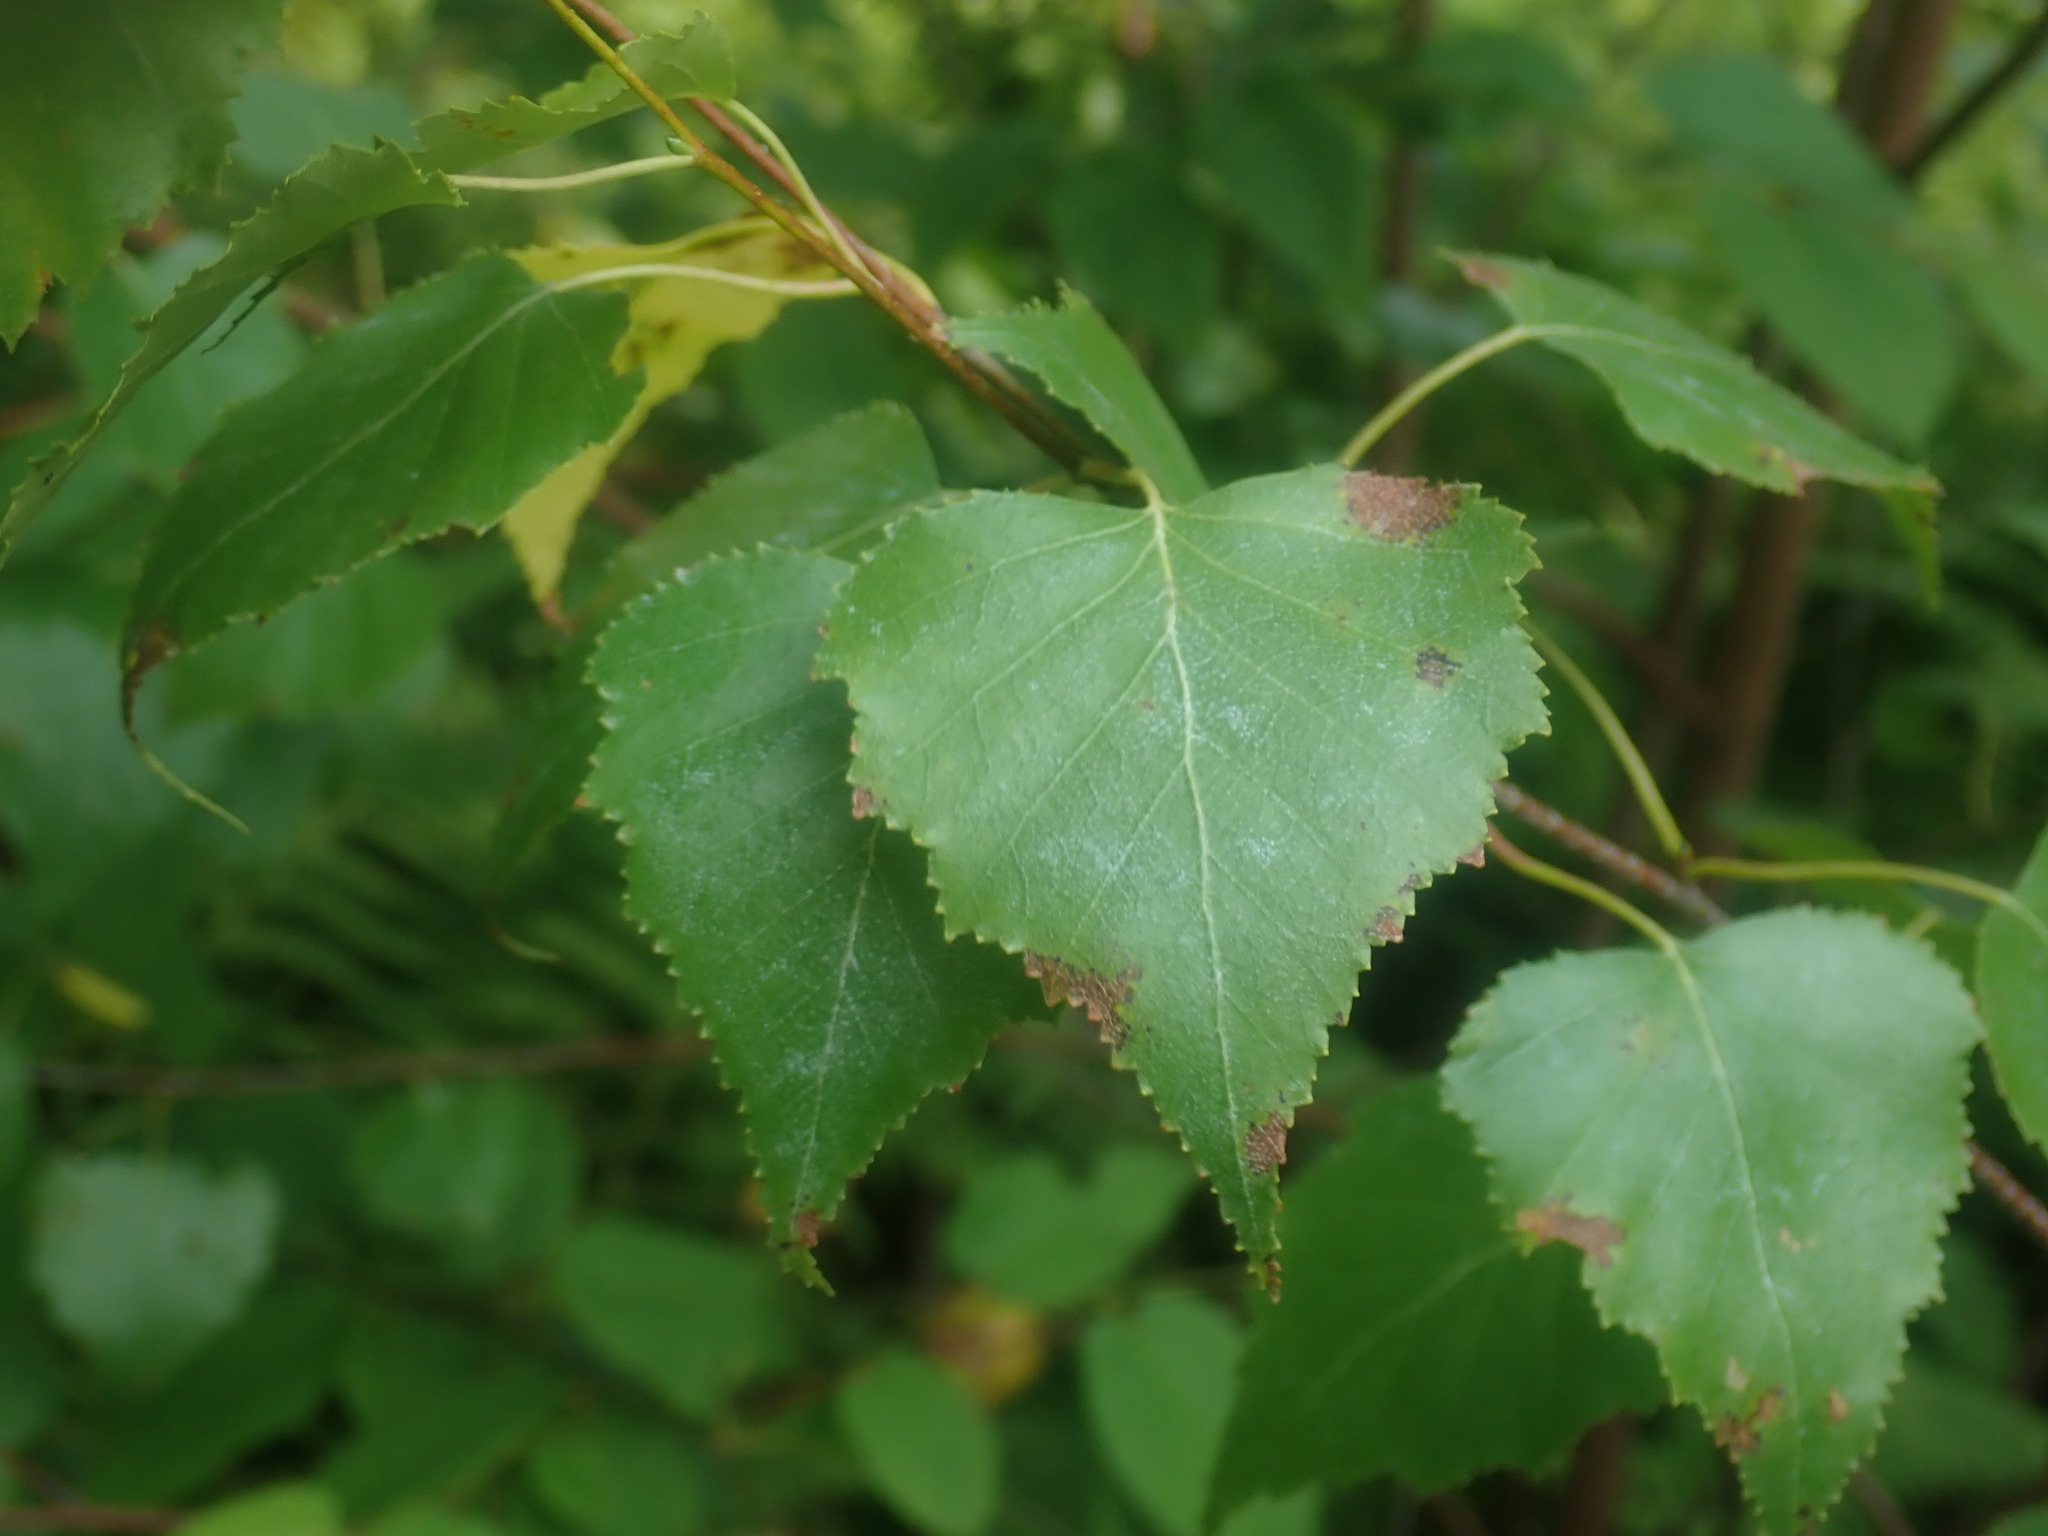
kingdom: Plantae
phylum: Tracheophyta
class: Magnoliopsida
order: Fagales
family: Betulaceae
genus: Betula
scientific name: Betula populifolia
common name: Fire birch
